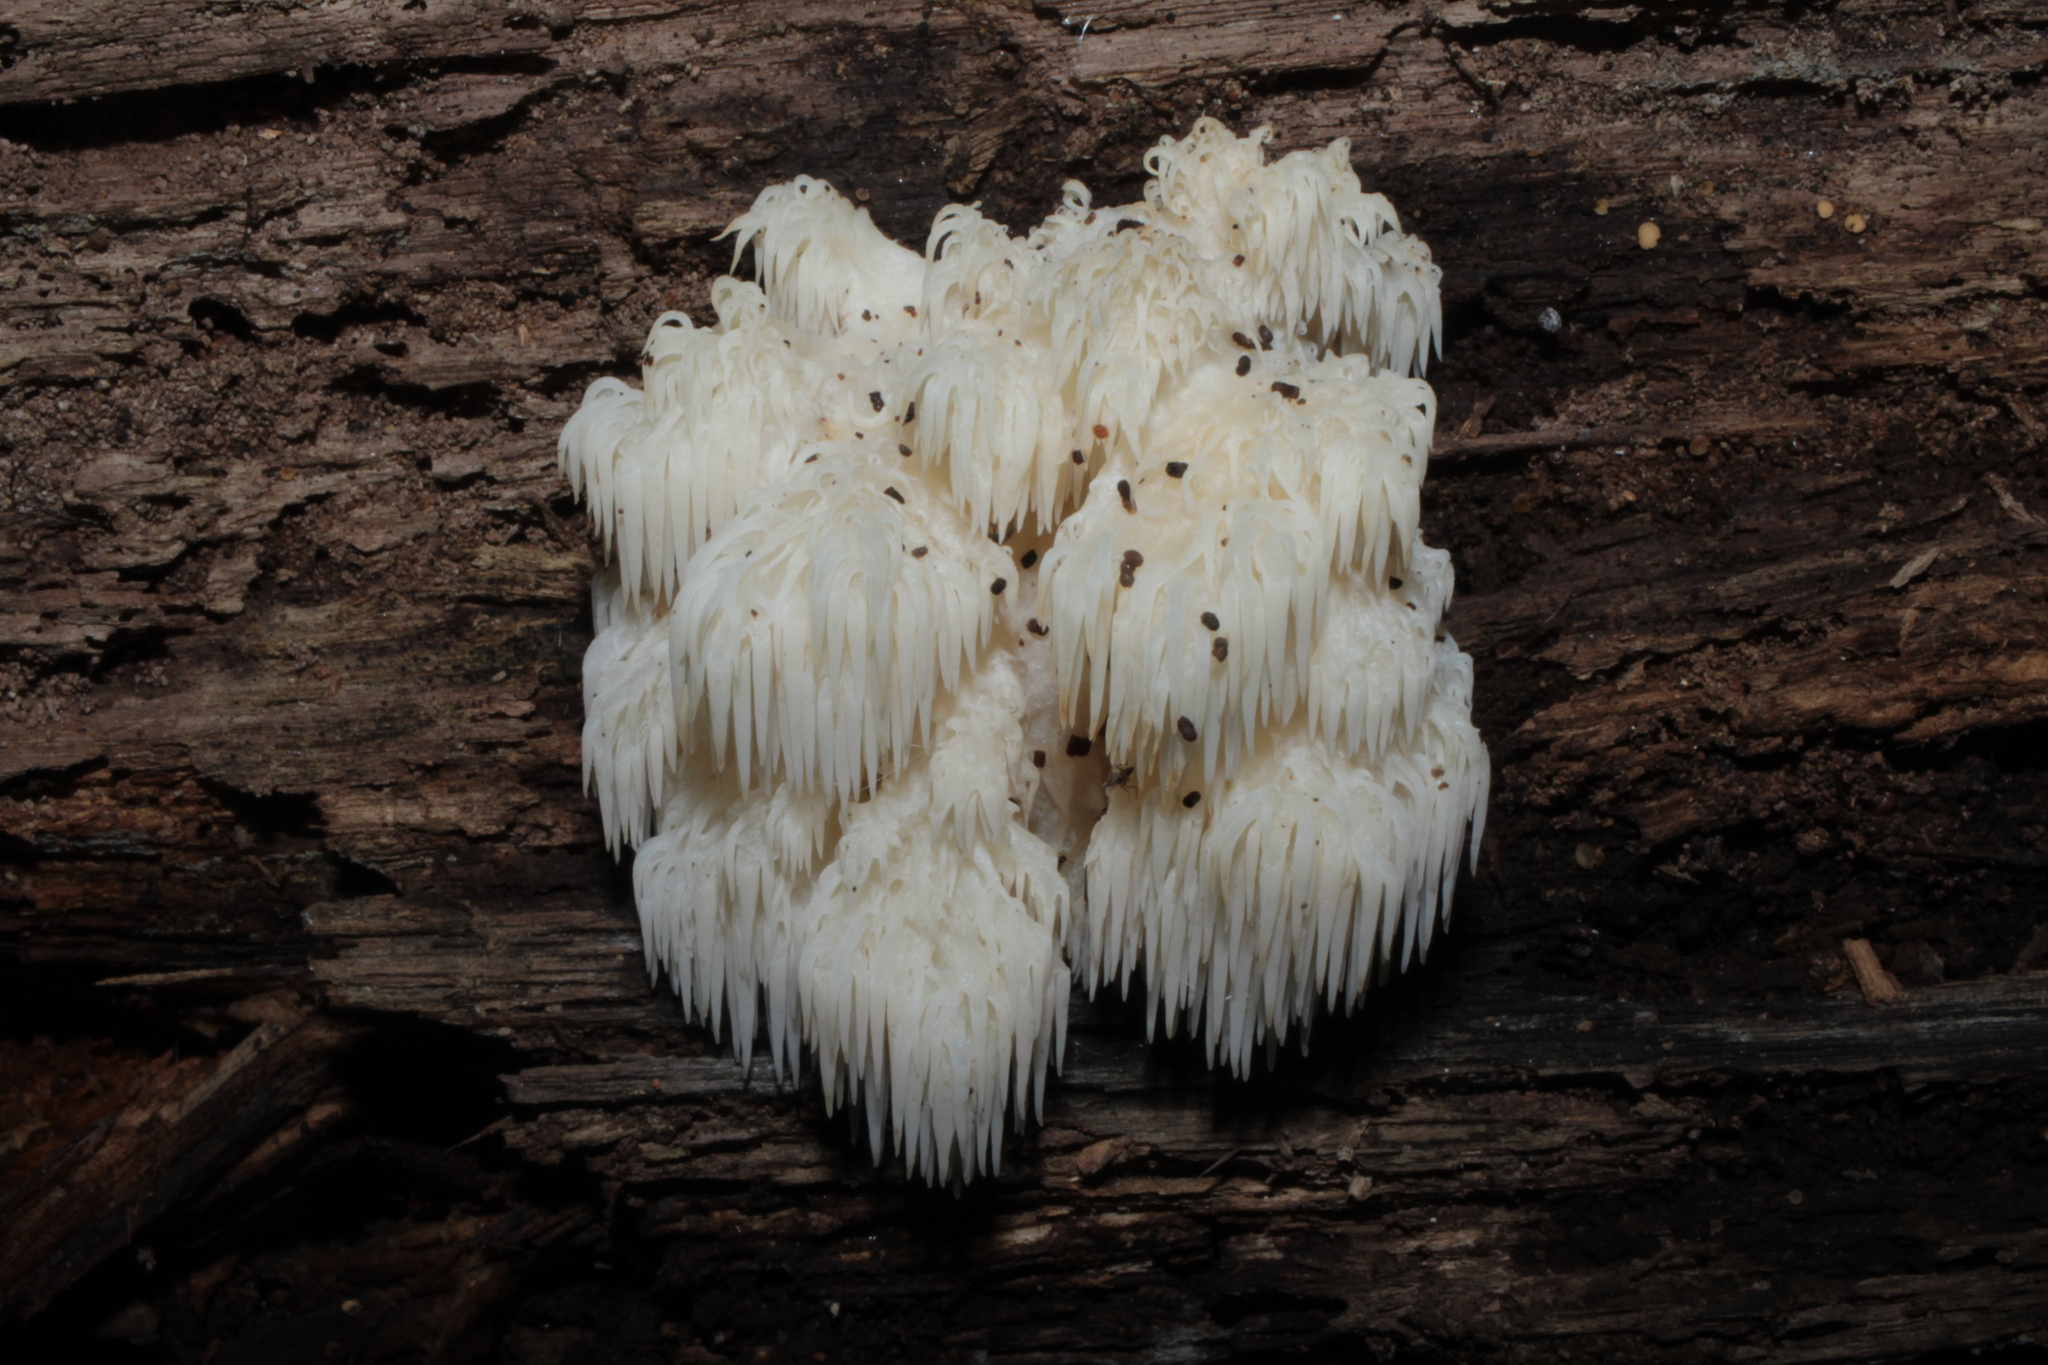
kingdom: Fungi
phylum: Basidiomycota
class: Agaricomycetes
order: Russulales
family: Hericiaceae
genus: Hericium
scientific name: Hericium americanum
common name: Bear's head tooth
